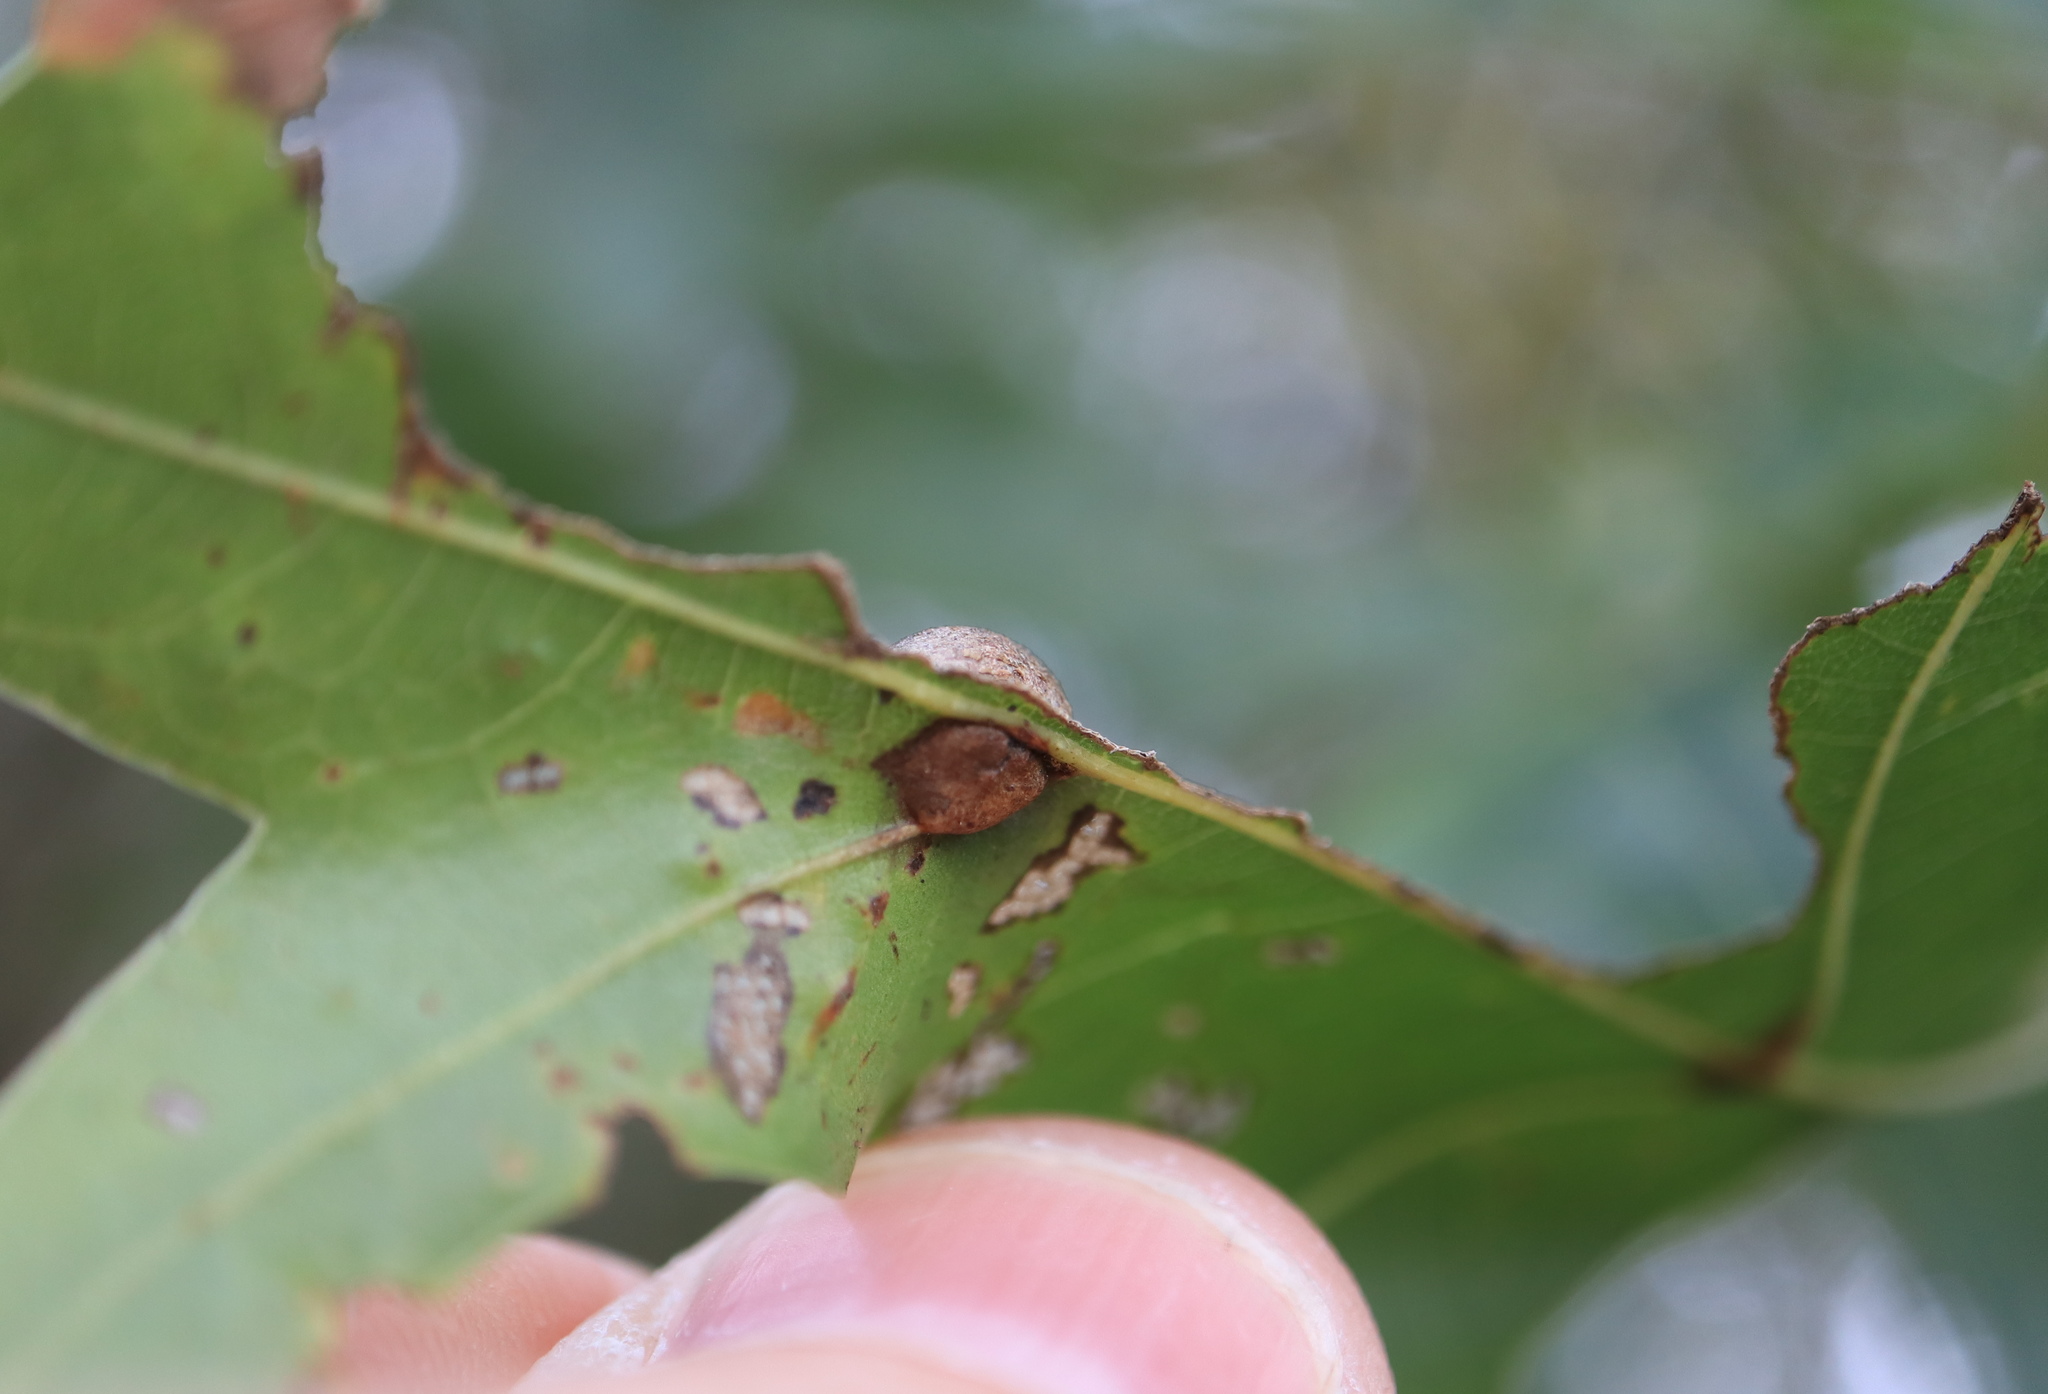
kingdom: Animalia
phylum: Arthropoda
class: Insecta
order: Diptera
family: Cecidomyiidae
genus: Polystepha
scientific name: Polystepha pilulae
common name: Oak leaf gall midge
